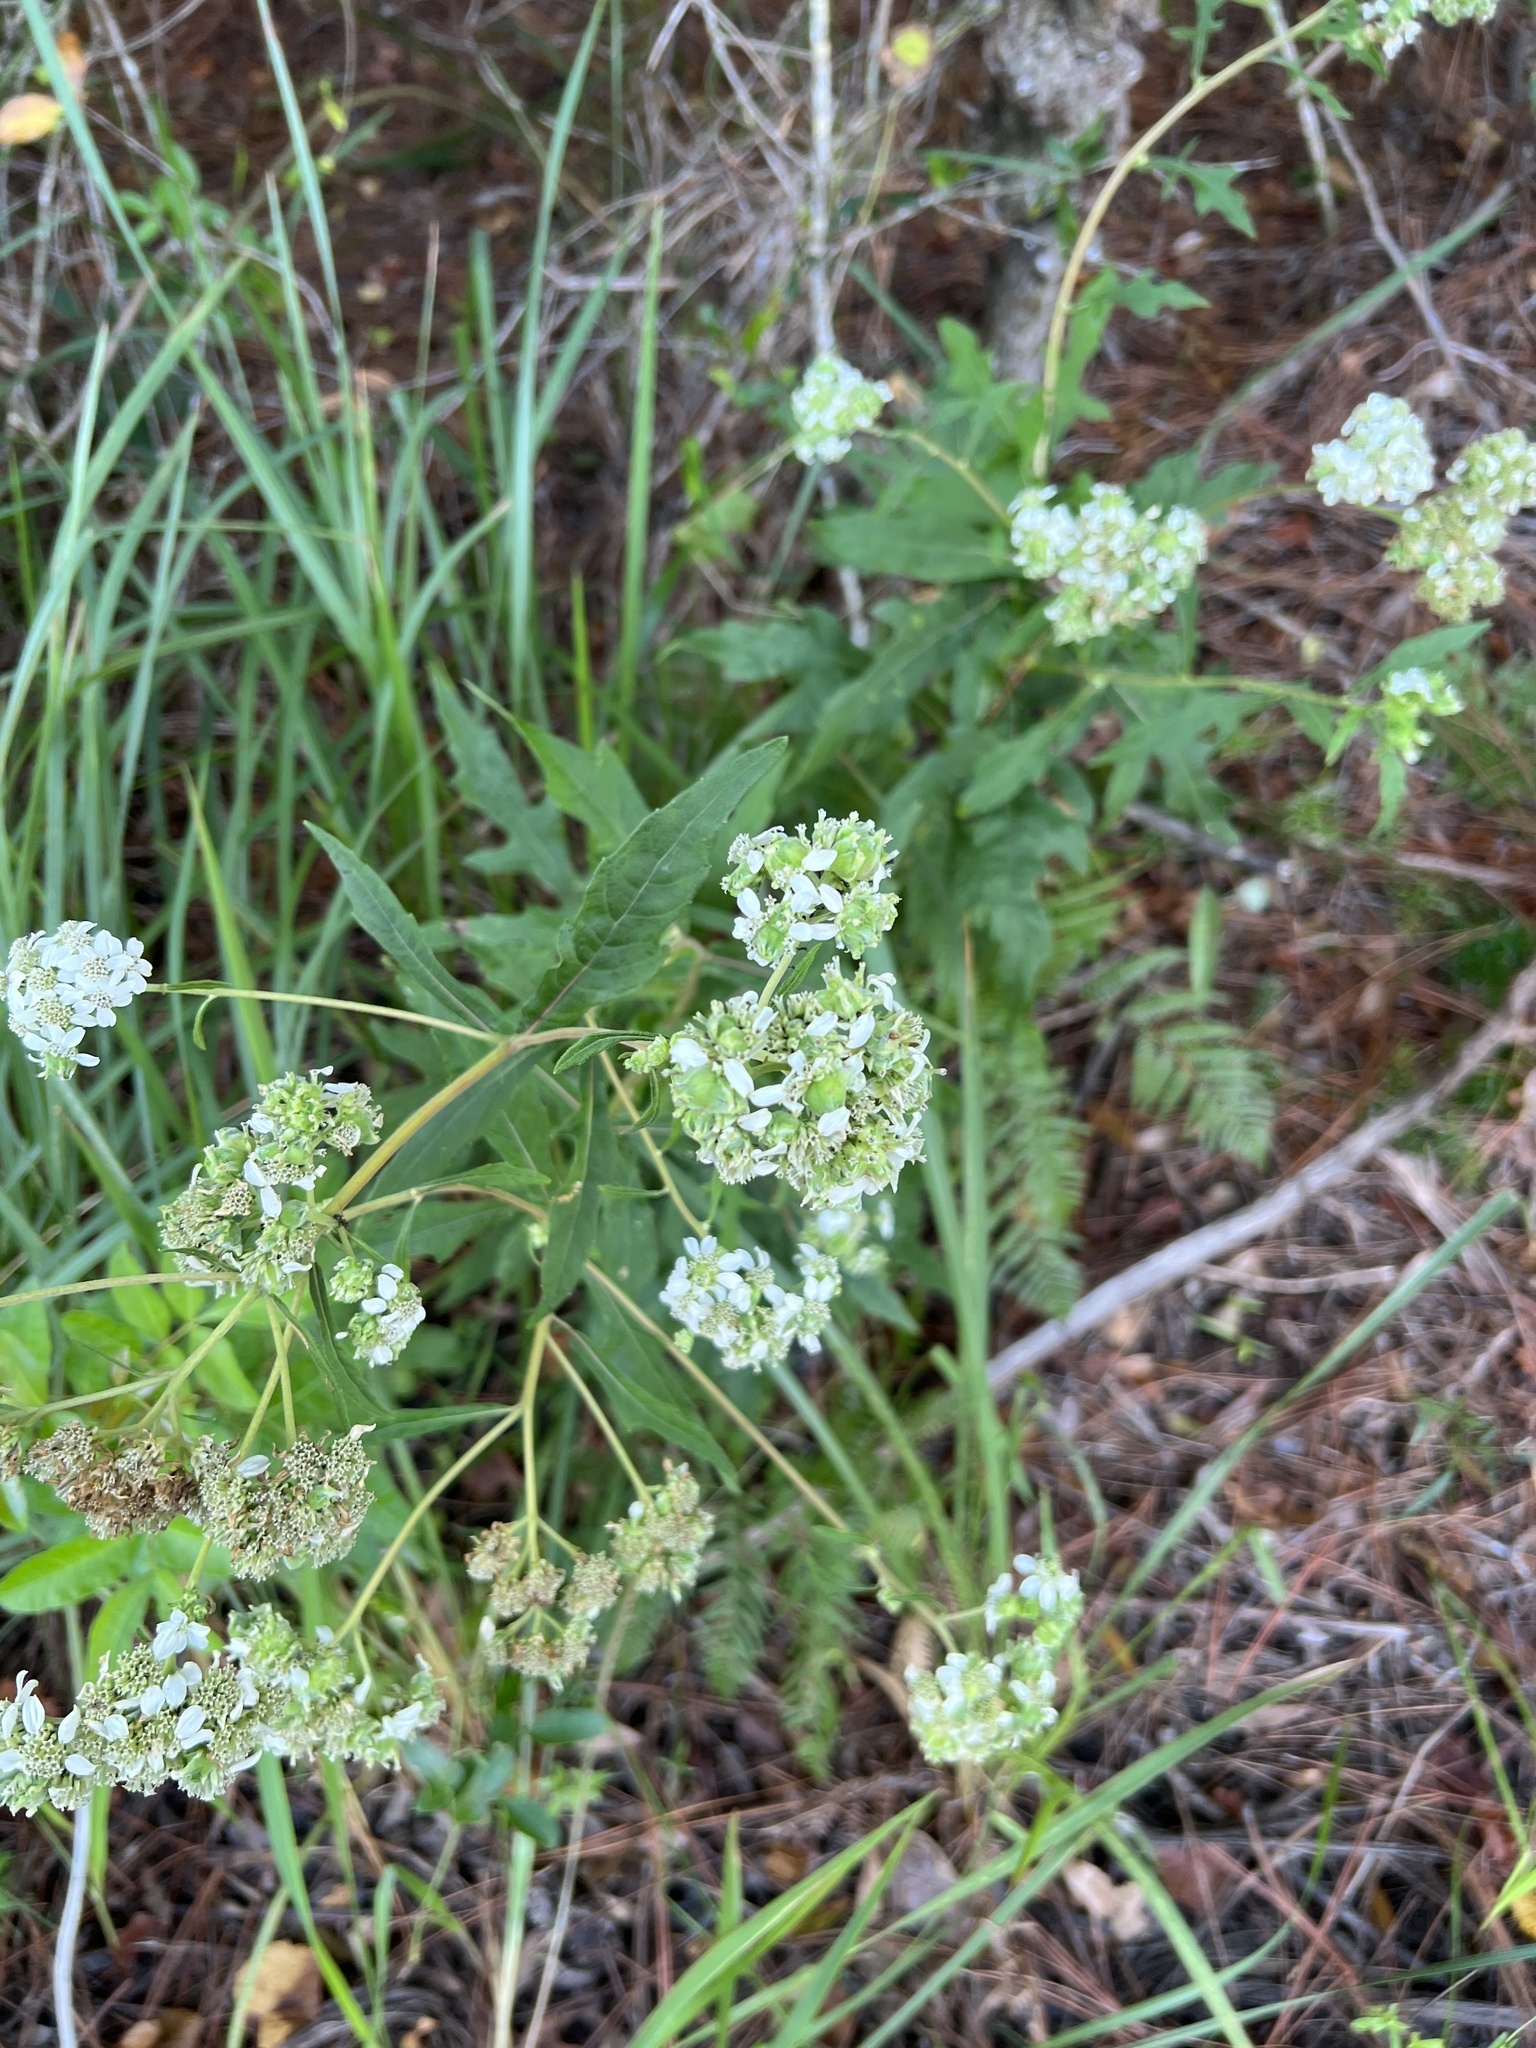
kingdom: Plantae
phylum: Tracheophyta
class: Magnoliopsida
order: Asterales
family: Asteraceae
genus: Verbesina
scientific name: Verbesina virginica
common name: Frostweed
